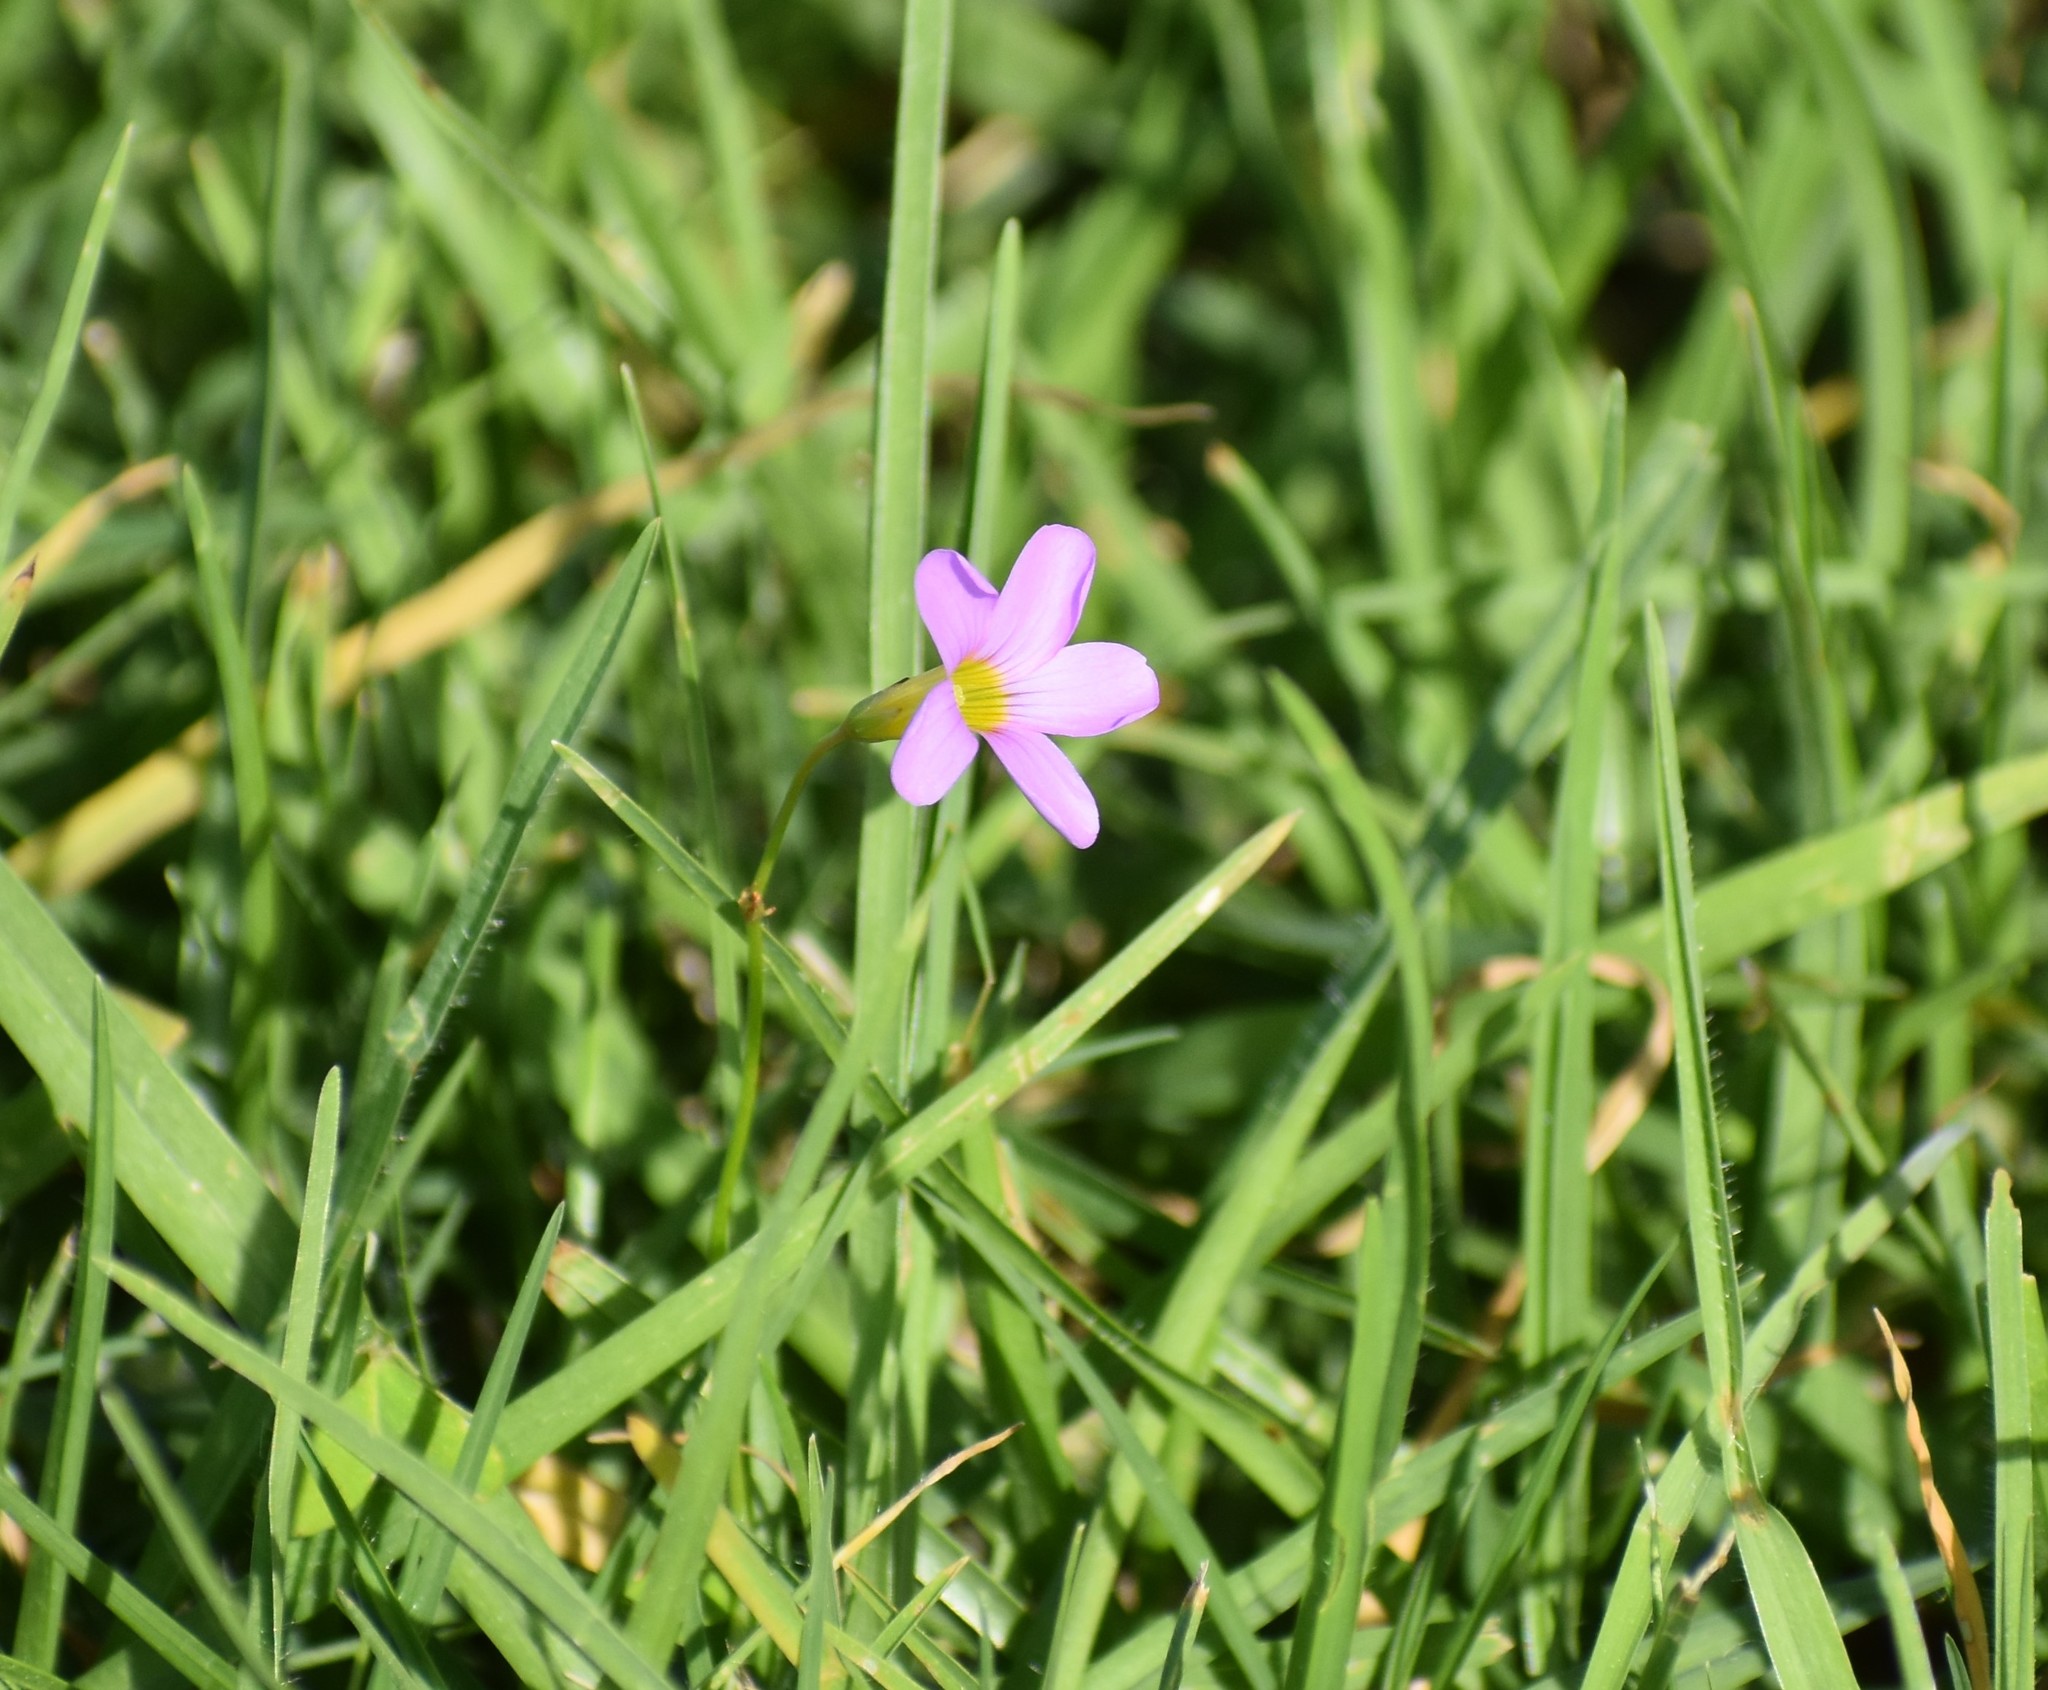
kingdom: Plantae
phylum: Tracheophyta
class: Magnoliopsida
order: Oxalidales
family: Oxalidaceae
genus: Oxalis
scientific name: Oxalis caprina
